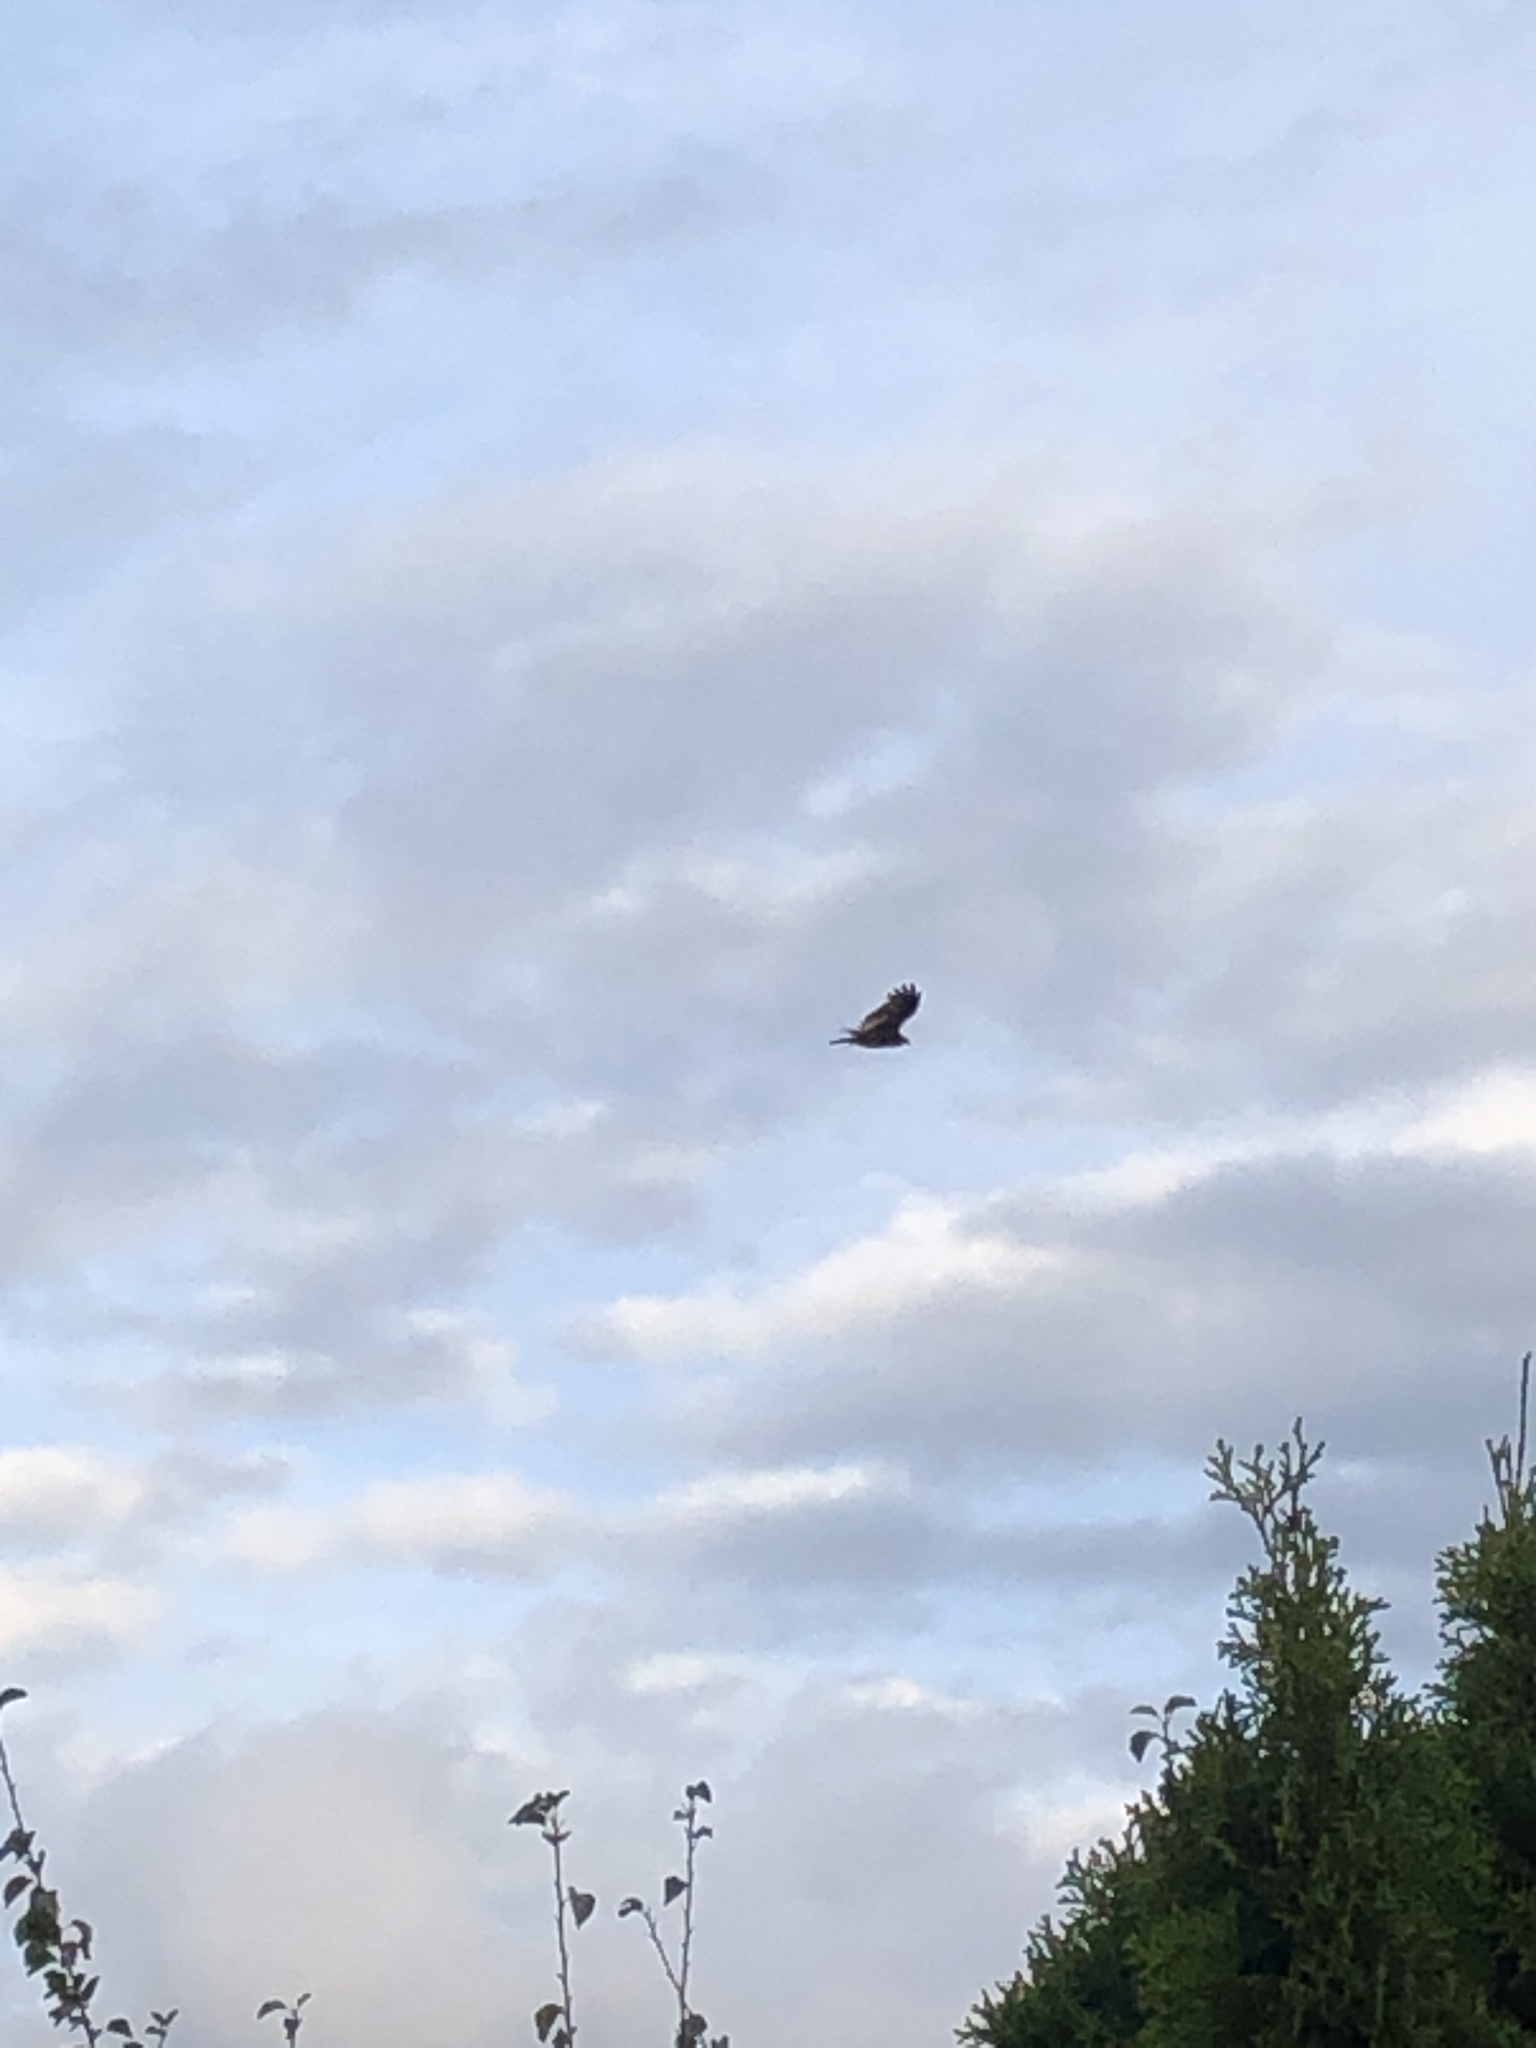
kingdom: Animalia
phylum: Chordata
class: Aves
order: Accipitriformes
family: Cathartidae
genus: Cathartes
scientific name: Cathartes aura
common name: Turkey vulture
